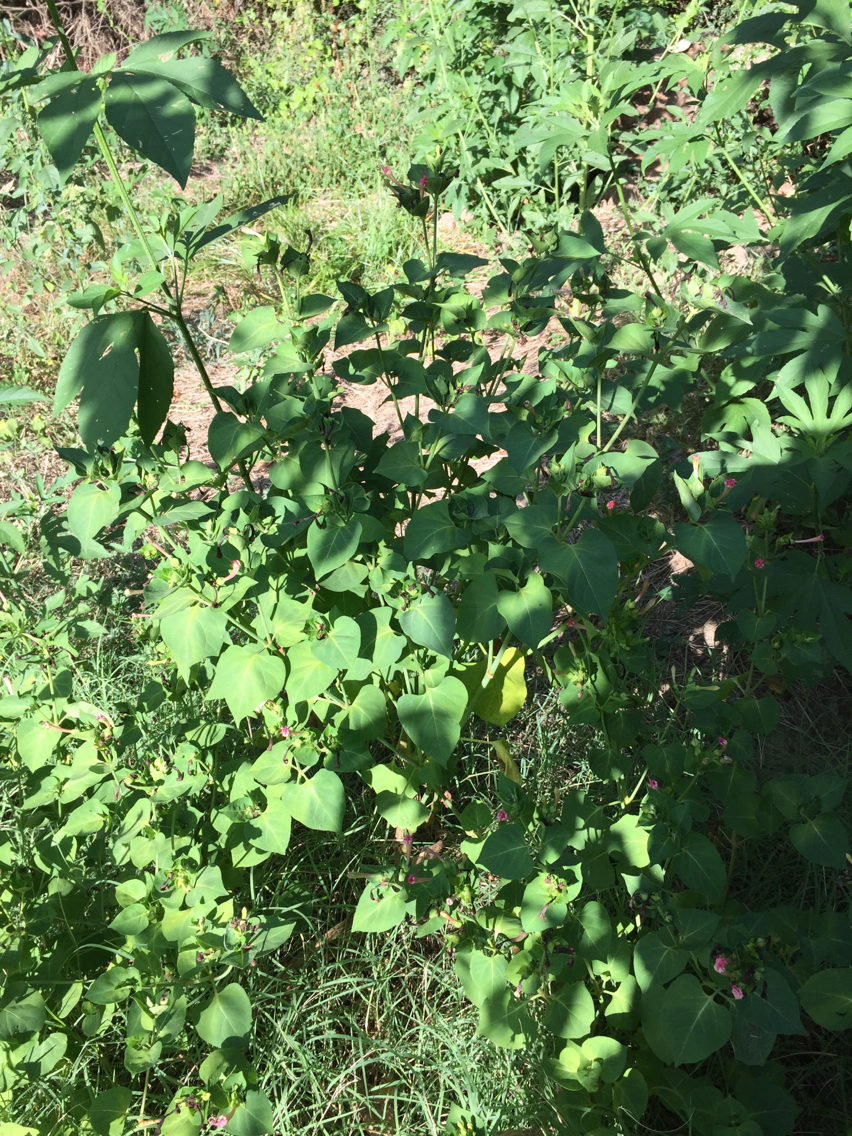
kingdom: Plantae
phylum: Tracheophyta
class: Magnoliopsida
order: Caryophyllales
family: Nyctaginaceae
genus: Mirabilis
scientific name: Mirabilis jalapa
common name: Marvel-of-peru
